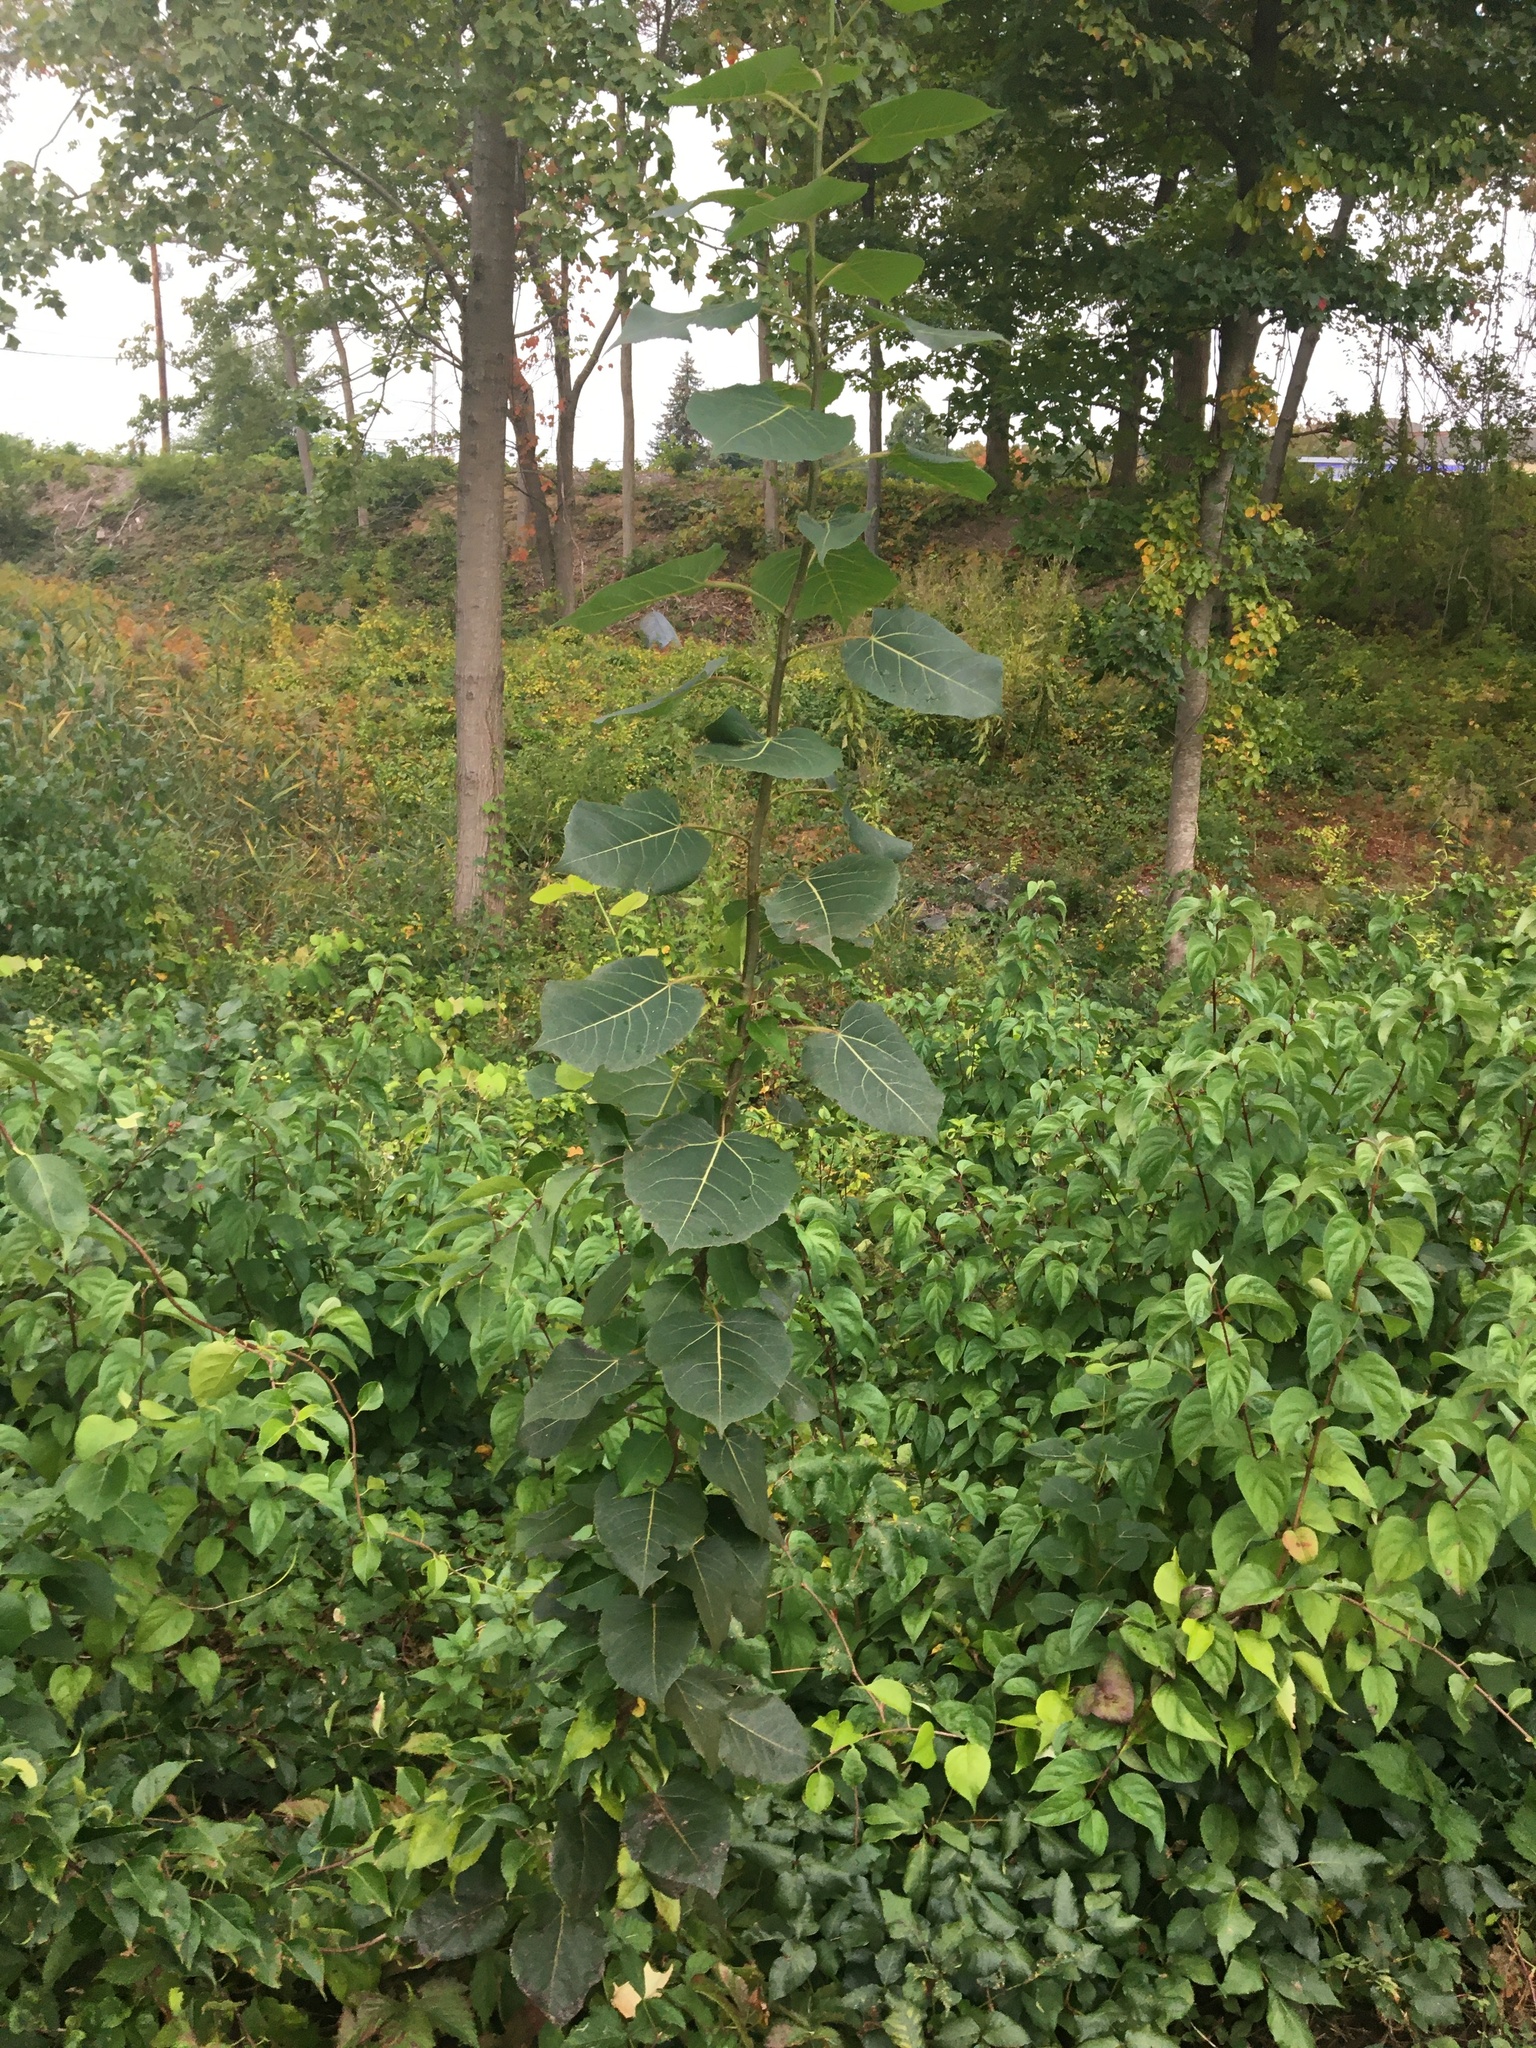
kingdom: Plantae
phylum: Tracheophyta
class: Magnoliopsida
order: Malpighiales
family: Salicaceae
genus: Populus
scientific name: Populus tremuloides
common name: Quaking aspen
